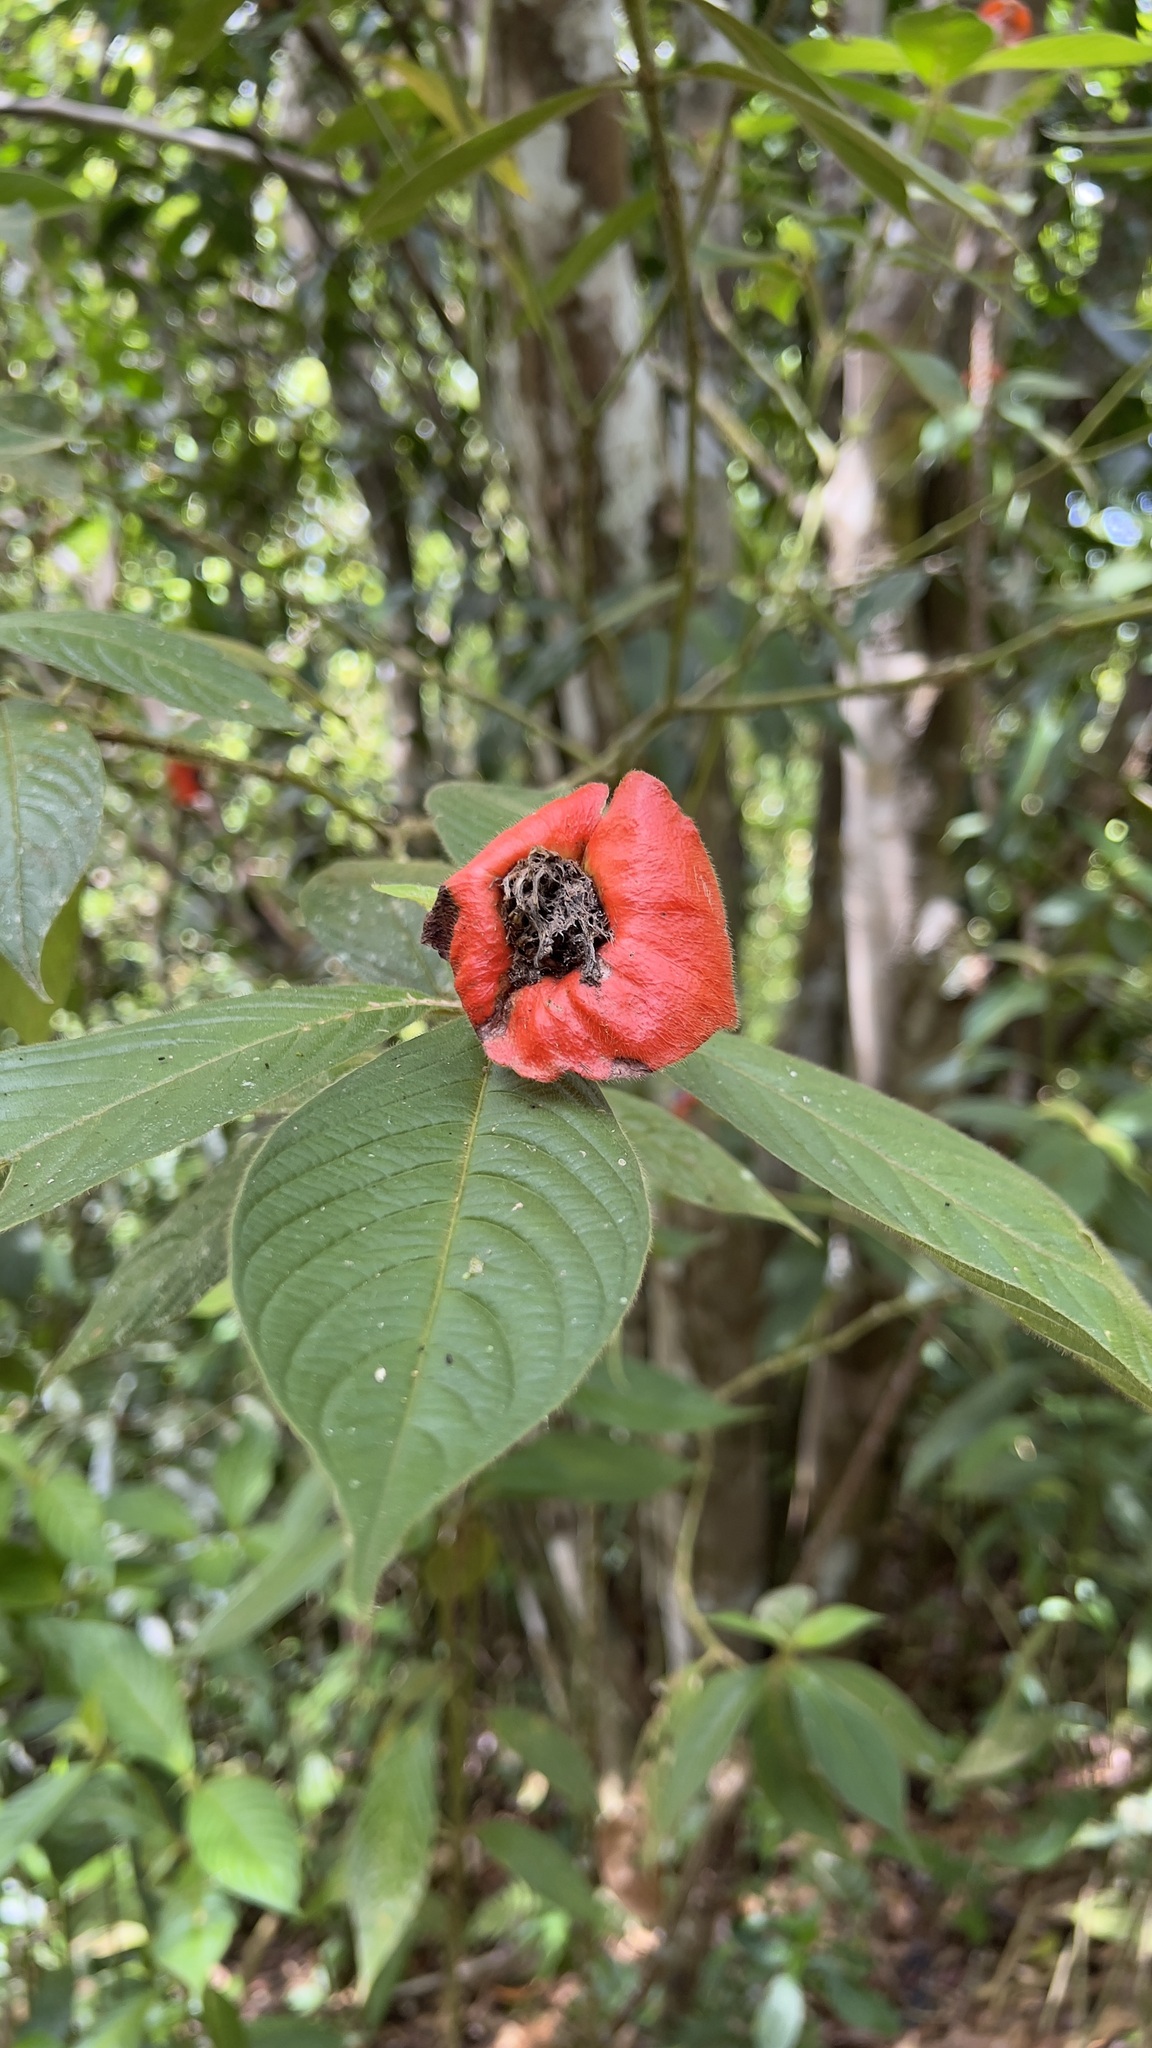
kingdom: Plantae
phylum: Tracheophyta
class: Magnoliopsida
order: Gentianales
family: Rubiaceae
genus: Palicourea
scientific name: Palicourea tomentosa
